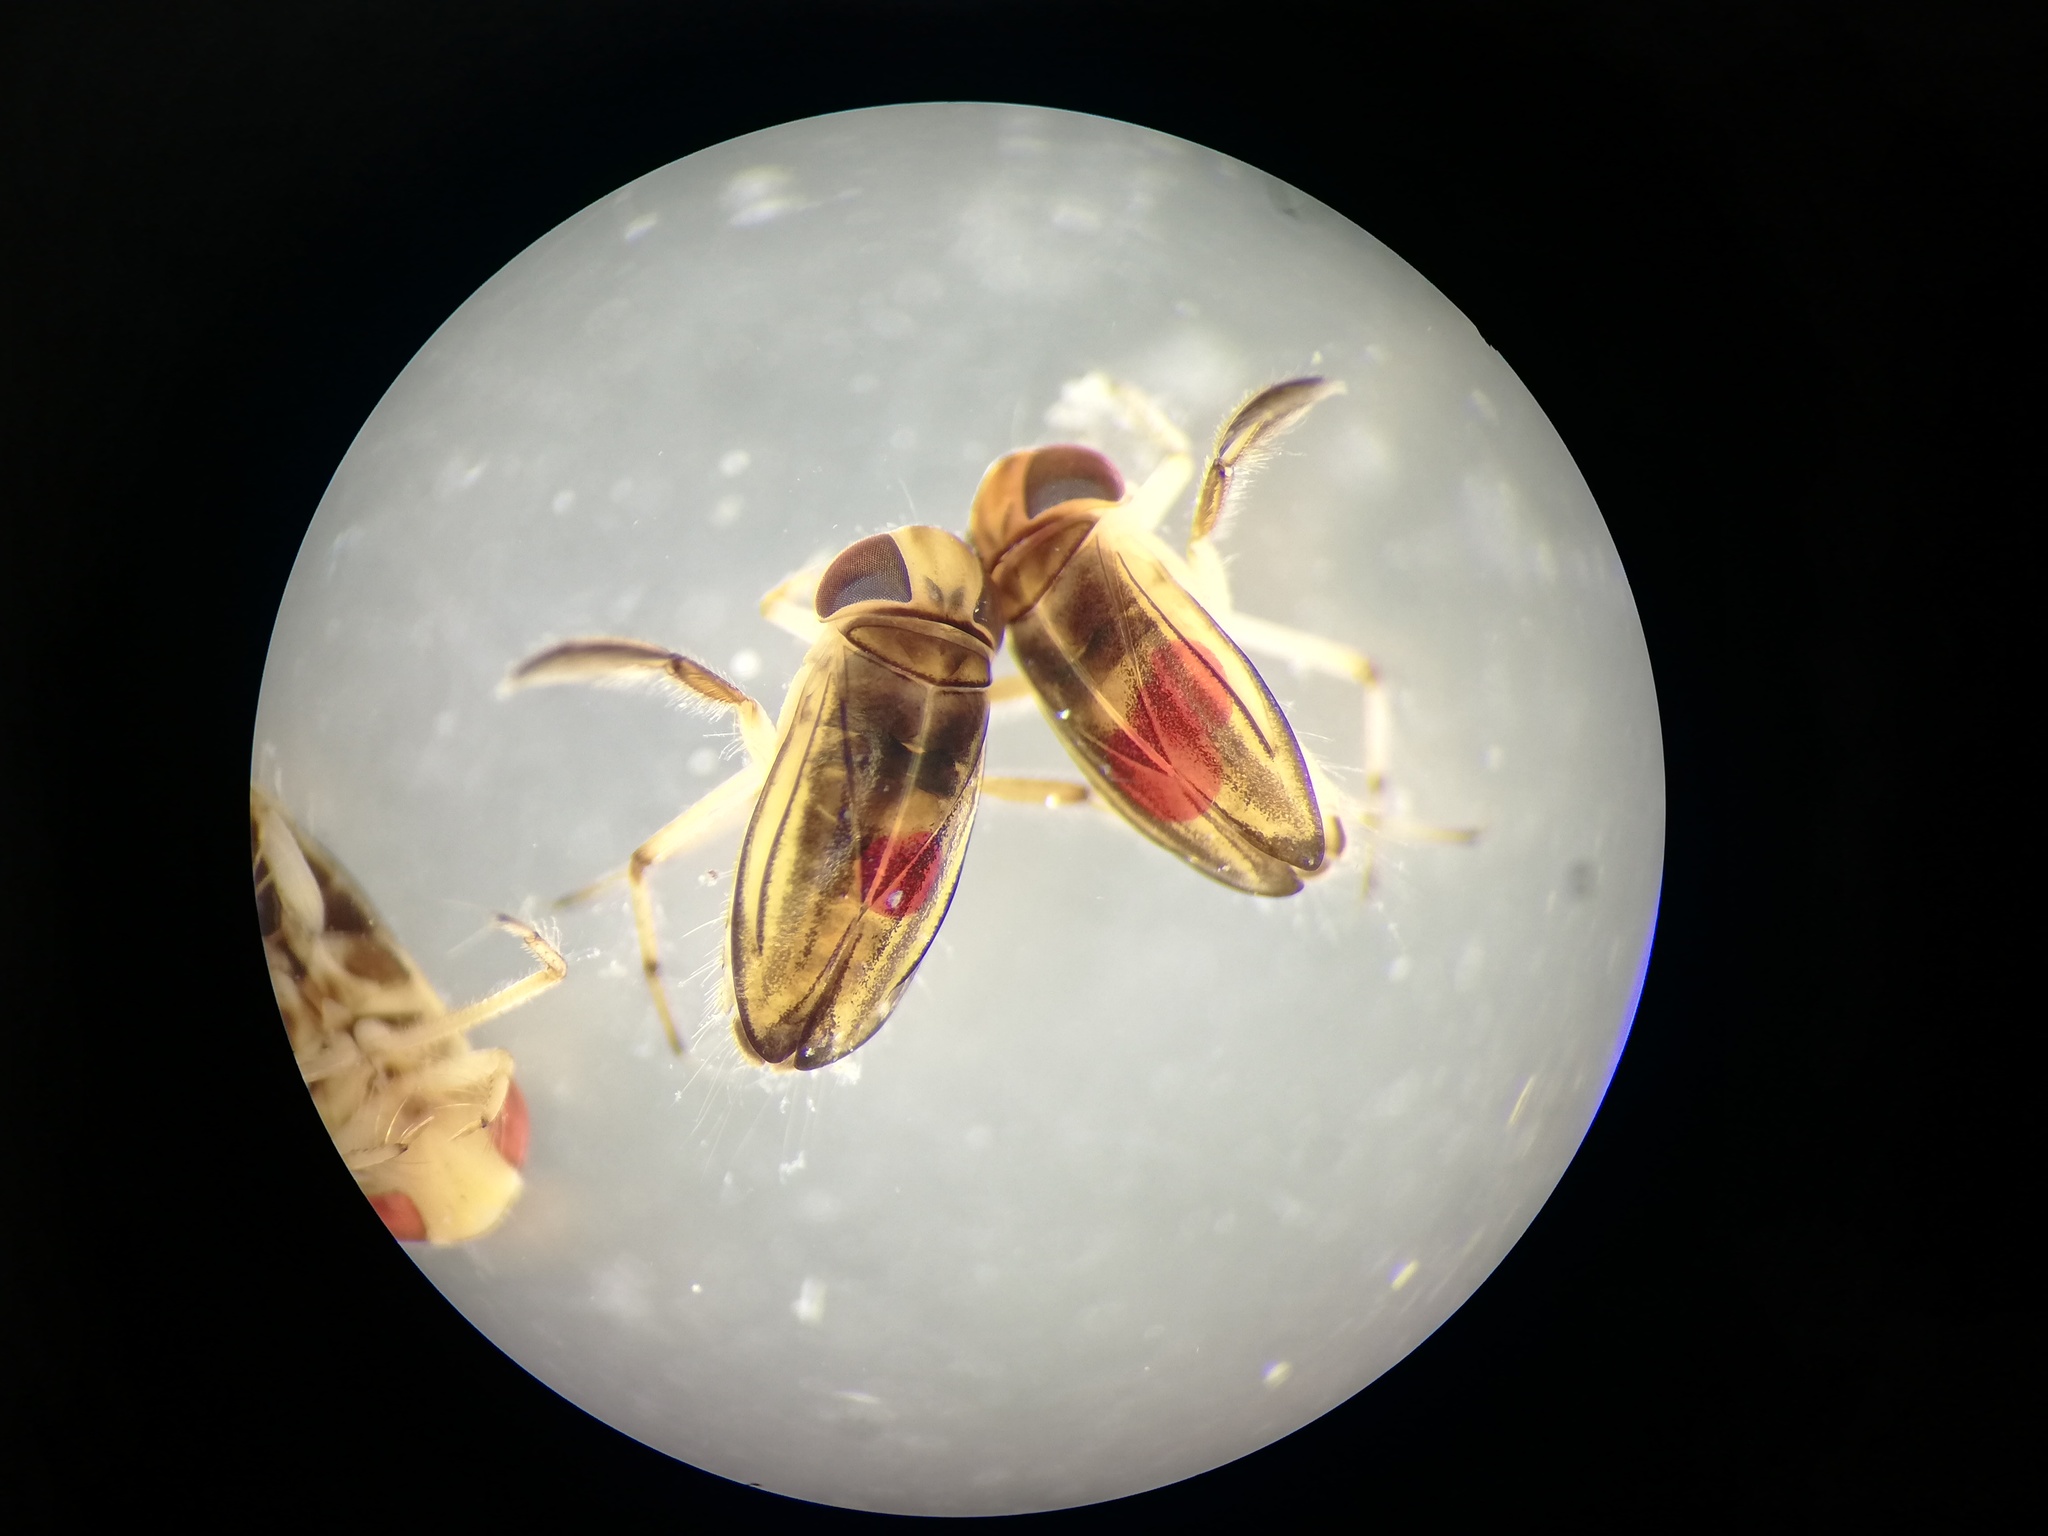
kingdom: Animalia
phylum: Arthropoda
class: Insecta
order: Hemiptera
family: Corixidae
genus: Cymatia
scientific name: Cymatia coleoptrata
